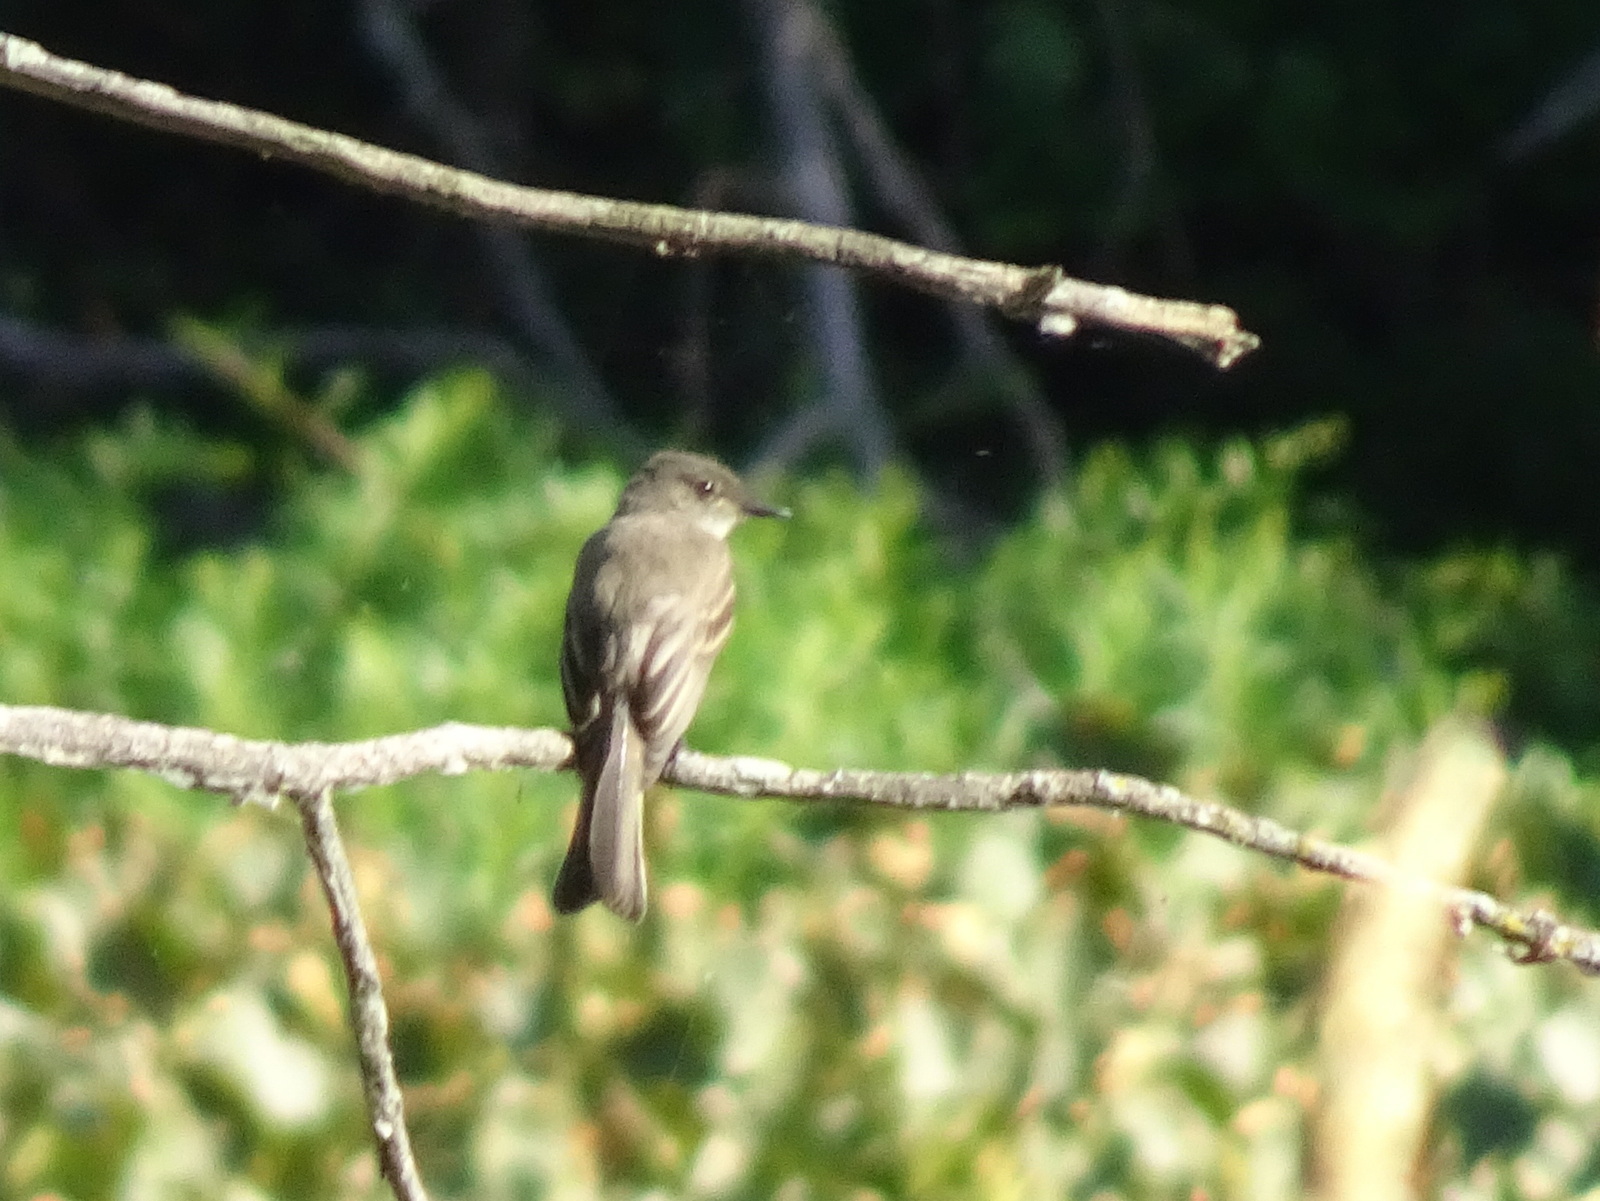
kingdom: Animalia
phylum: Chordata
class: Aves
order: Passeriformes
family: Tyrannidae
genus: Sayornis
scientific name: Sayornis phoebe
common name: Eastern phoebe
